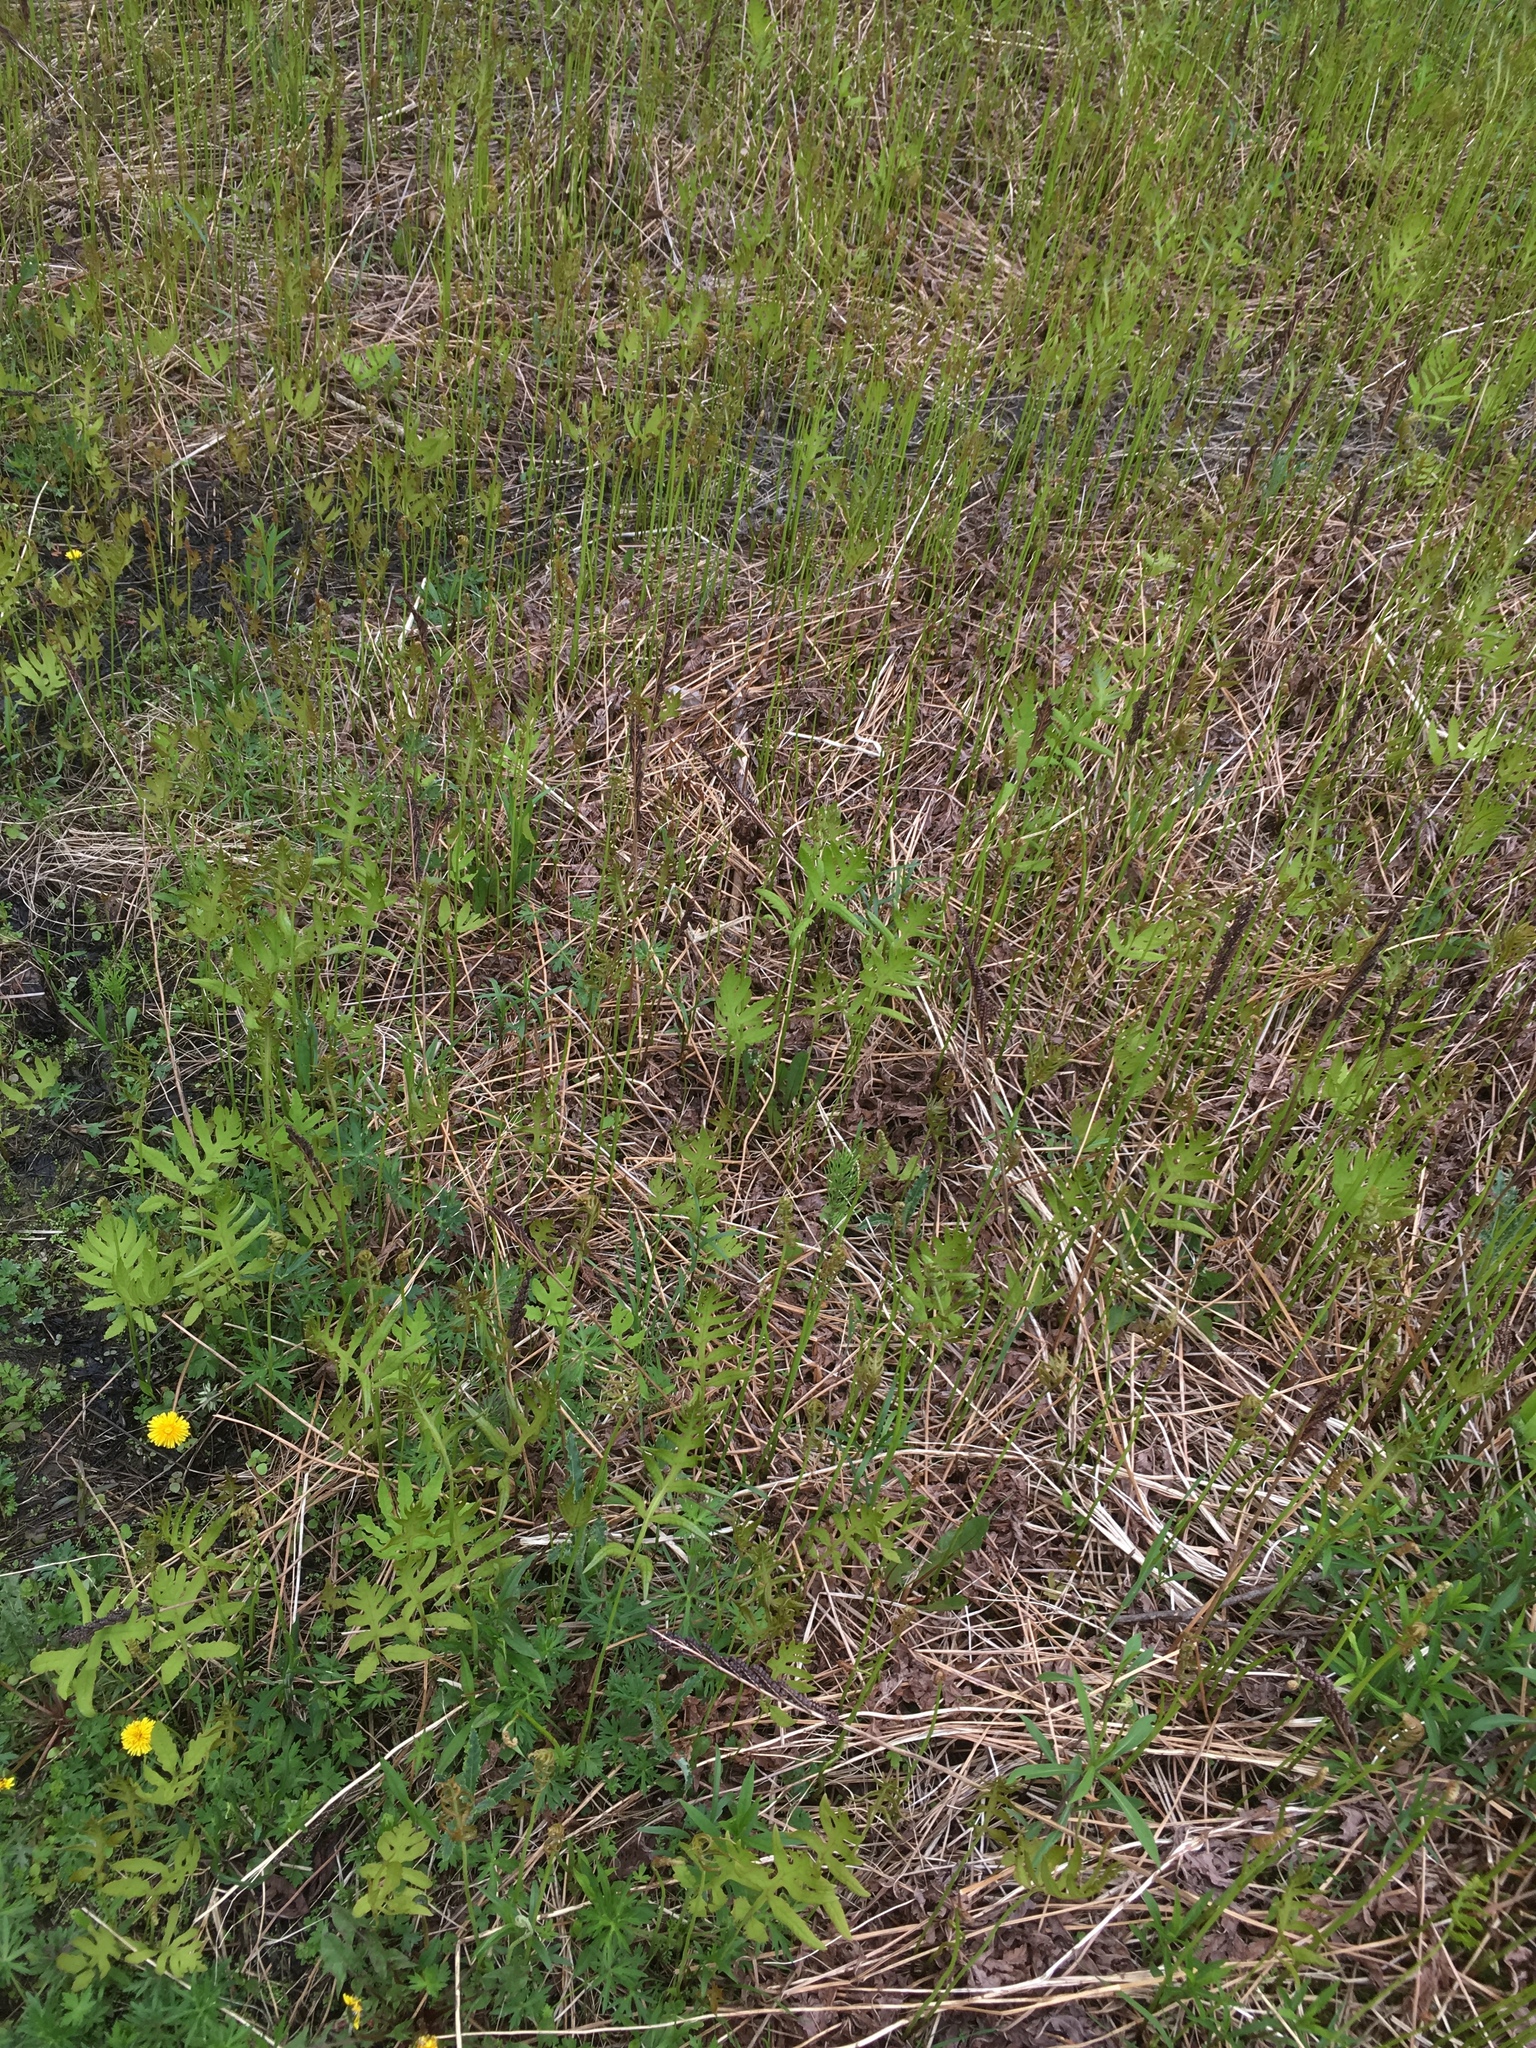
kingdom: Plantae
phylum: Tracheophyta
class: Polypodiopsida
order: Polypodiales
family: Onocleaceae
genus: Onoclea
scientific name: Onoclea sensibilis
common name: Sensitive fern
